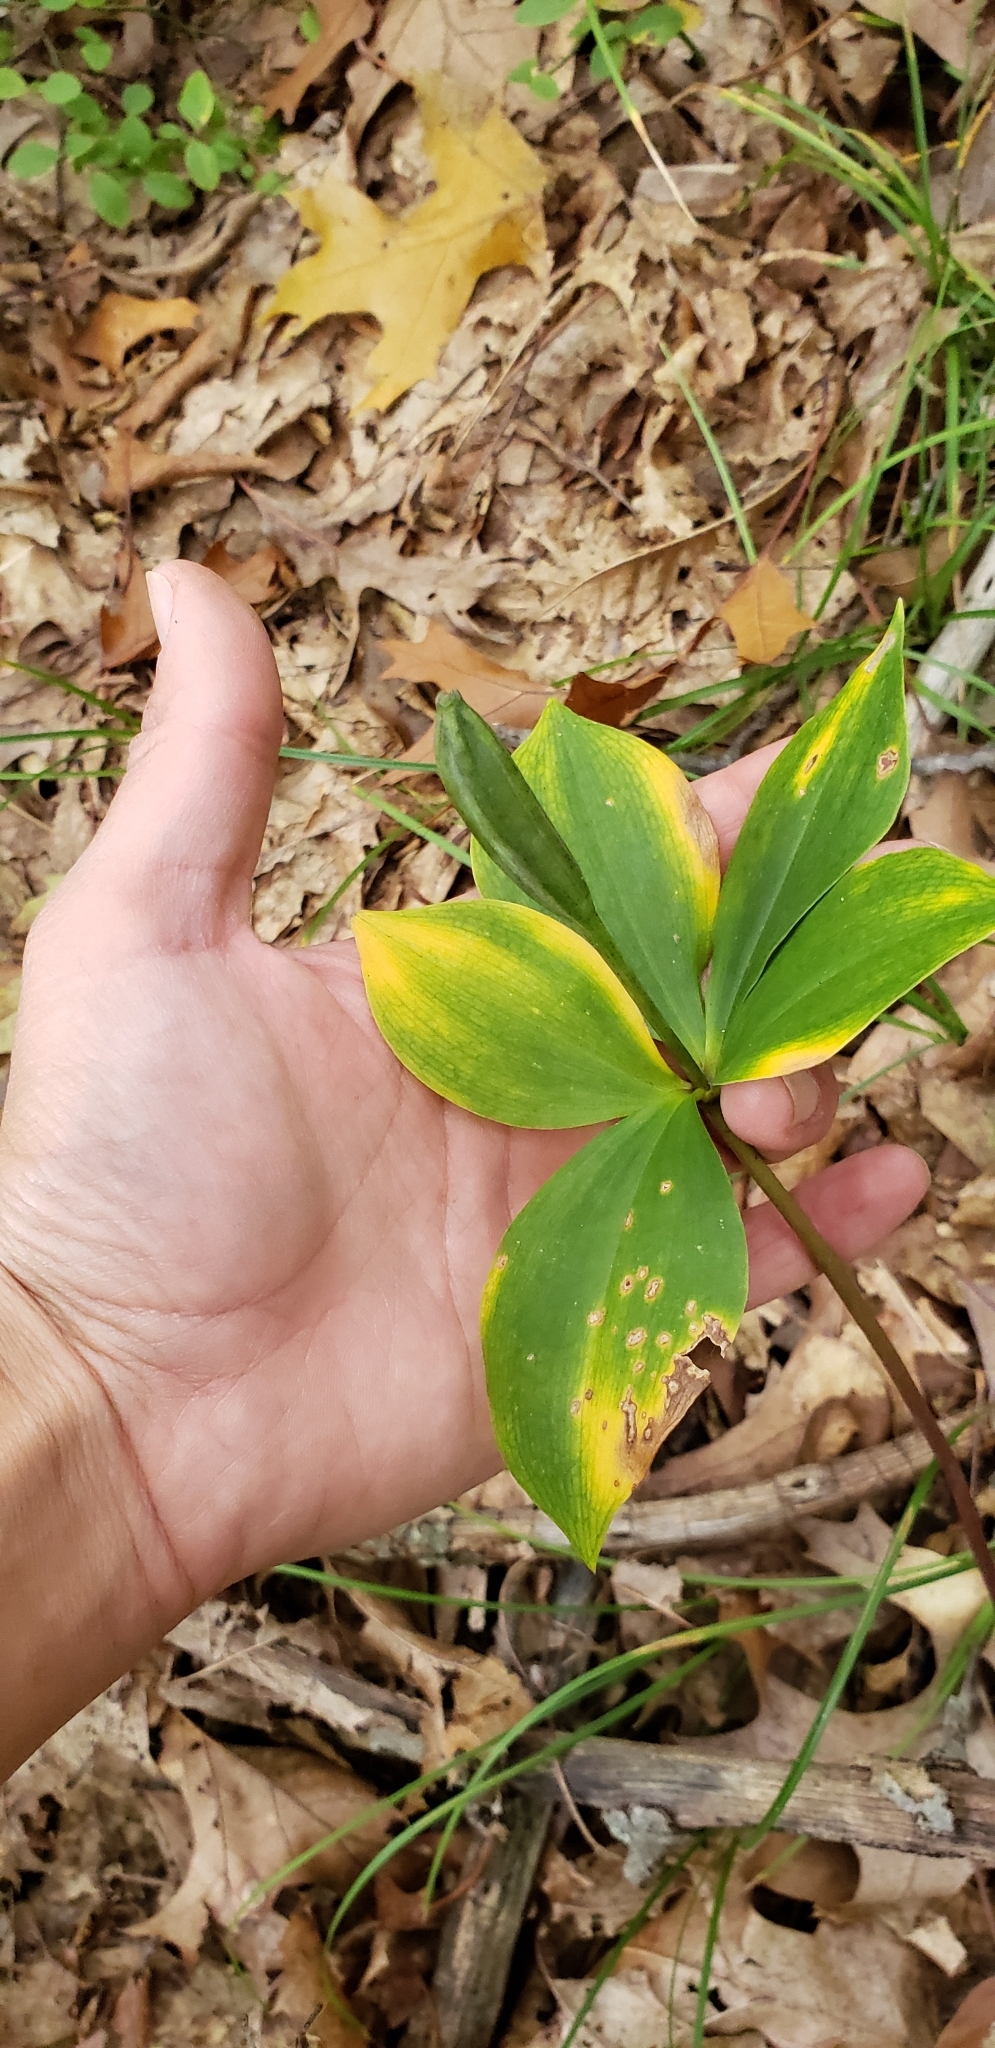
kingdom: Plantae
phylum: Tracheophyta
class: Liliopsida
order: Asparagales
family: Orchidaceae
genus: Isotria
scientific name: Isotria verticillata
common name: Large whorled pogonia
